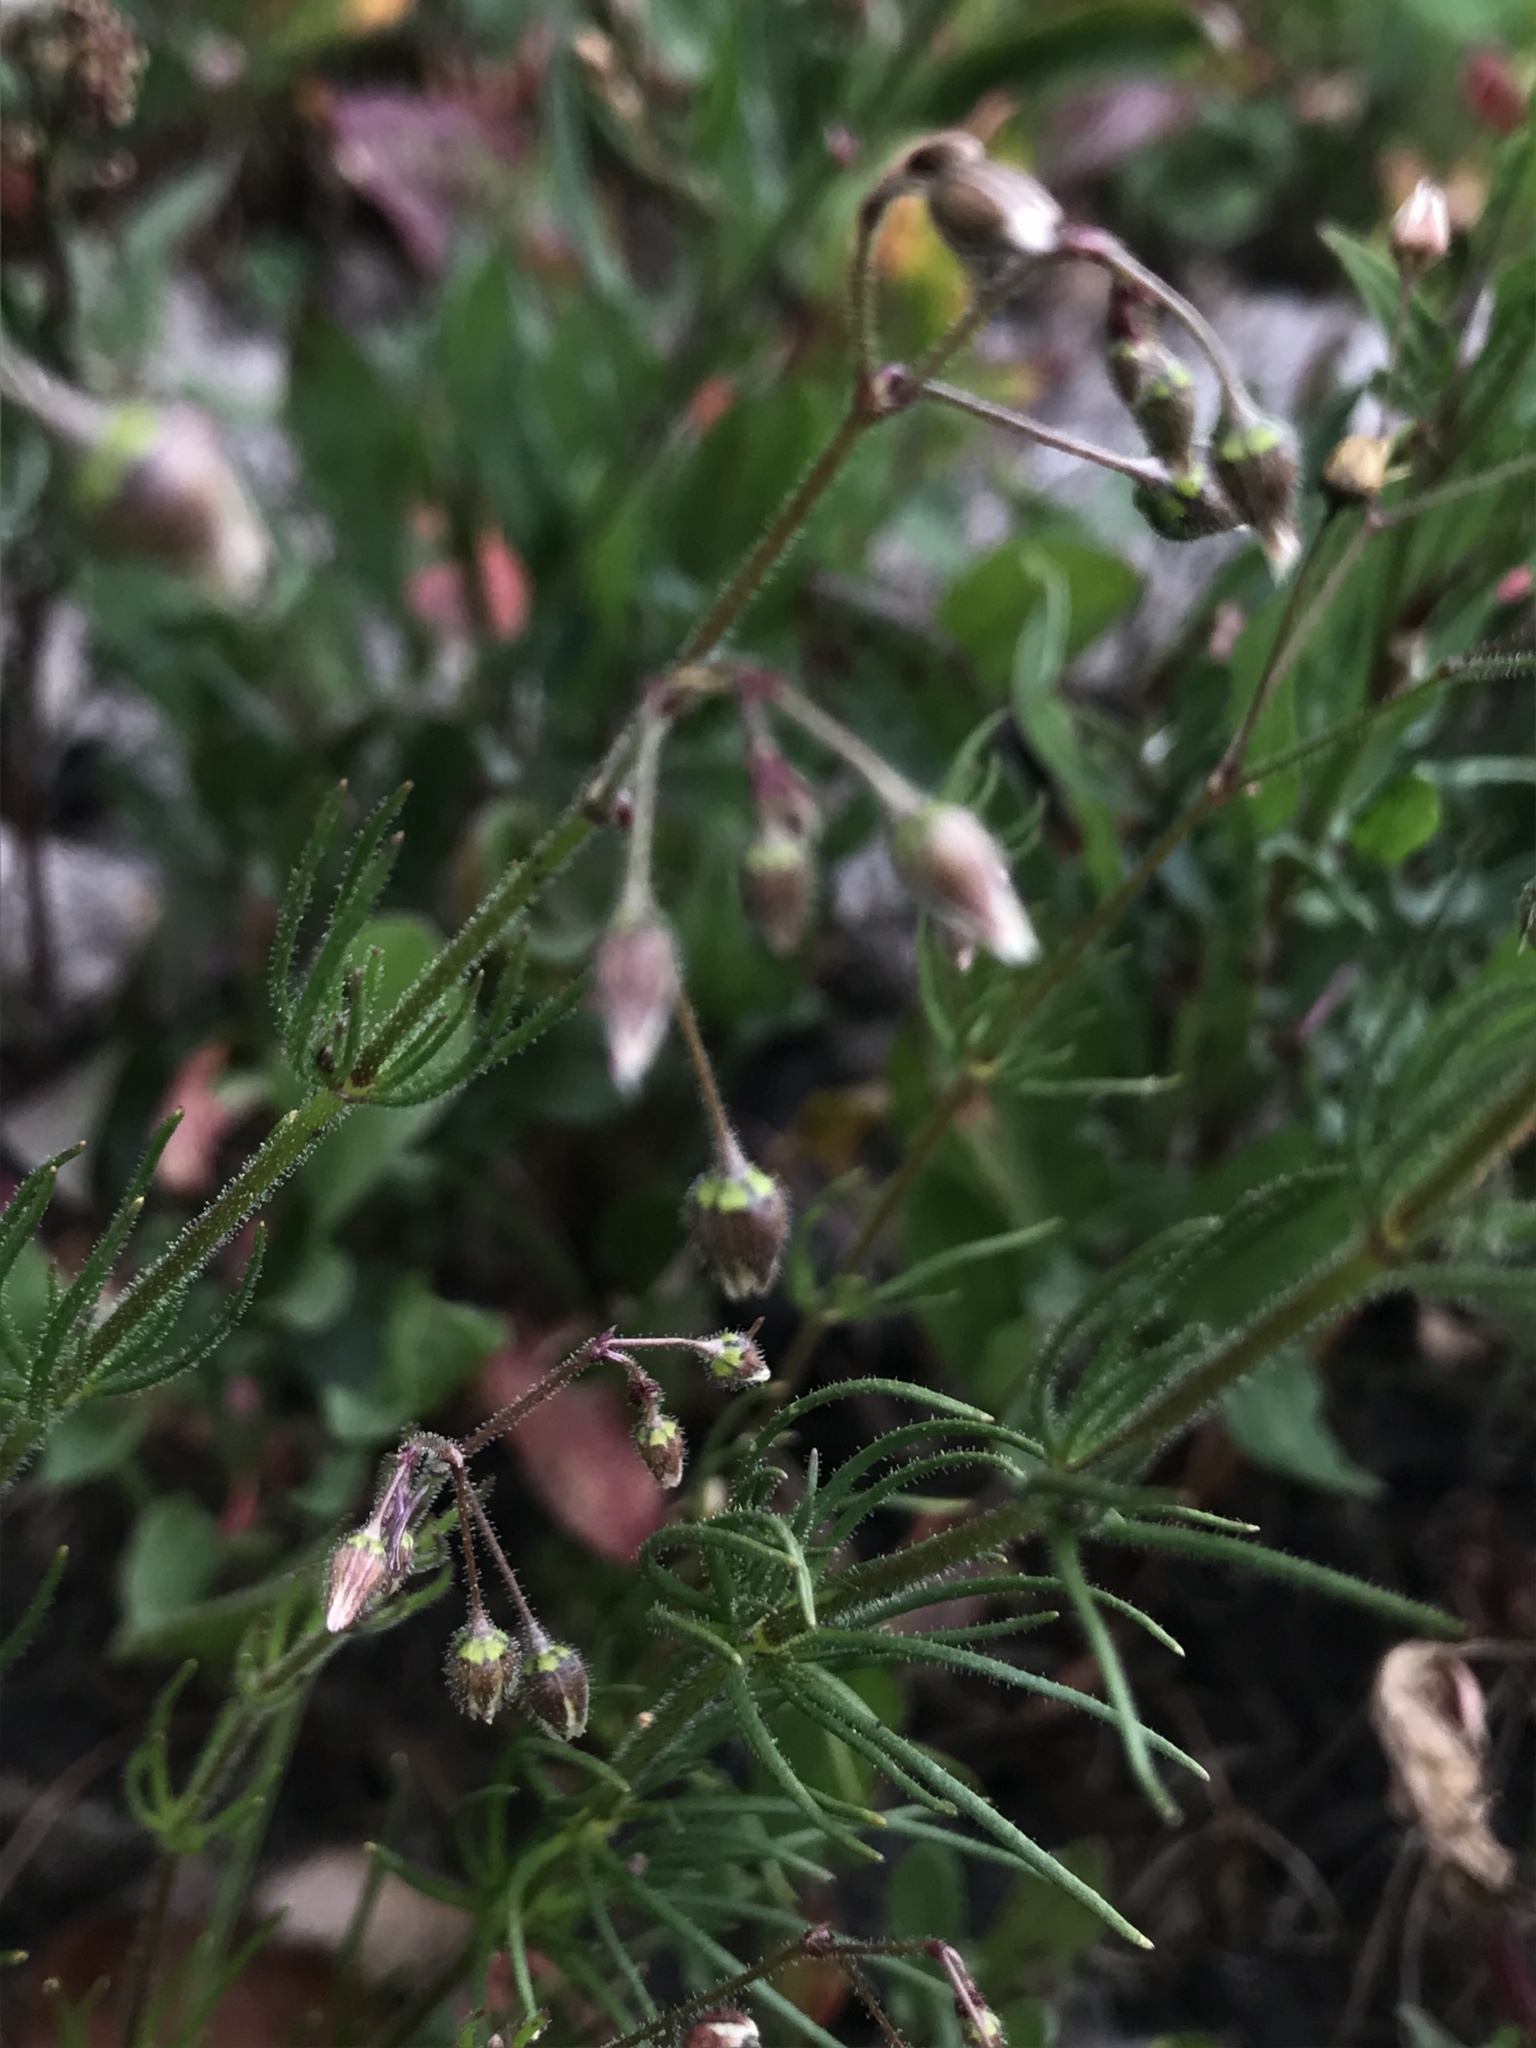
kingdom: Plantae
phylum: Tracheophyta
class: Magnoliopsida
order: Caryophyllales
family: Caryophyllaceae
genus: Spergula
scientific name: Spergula arvensis
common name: Corn spurrey
